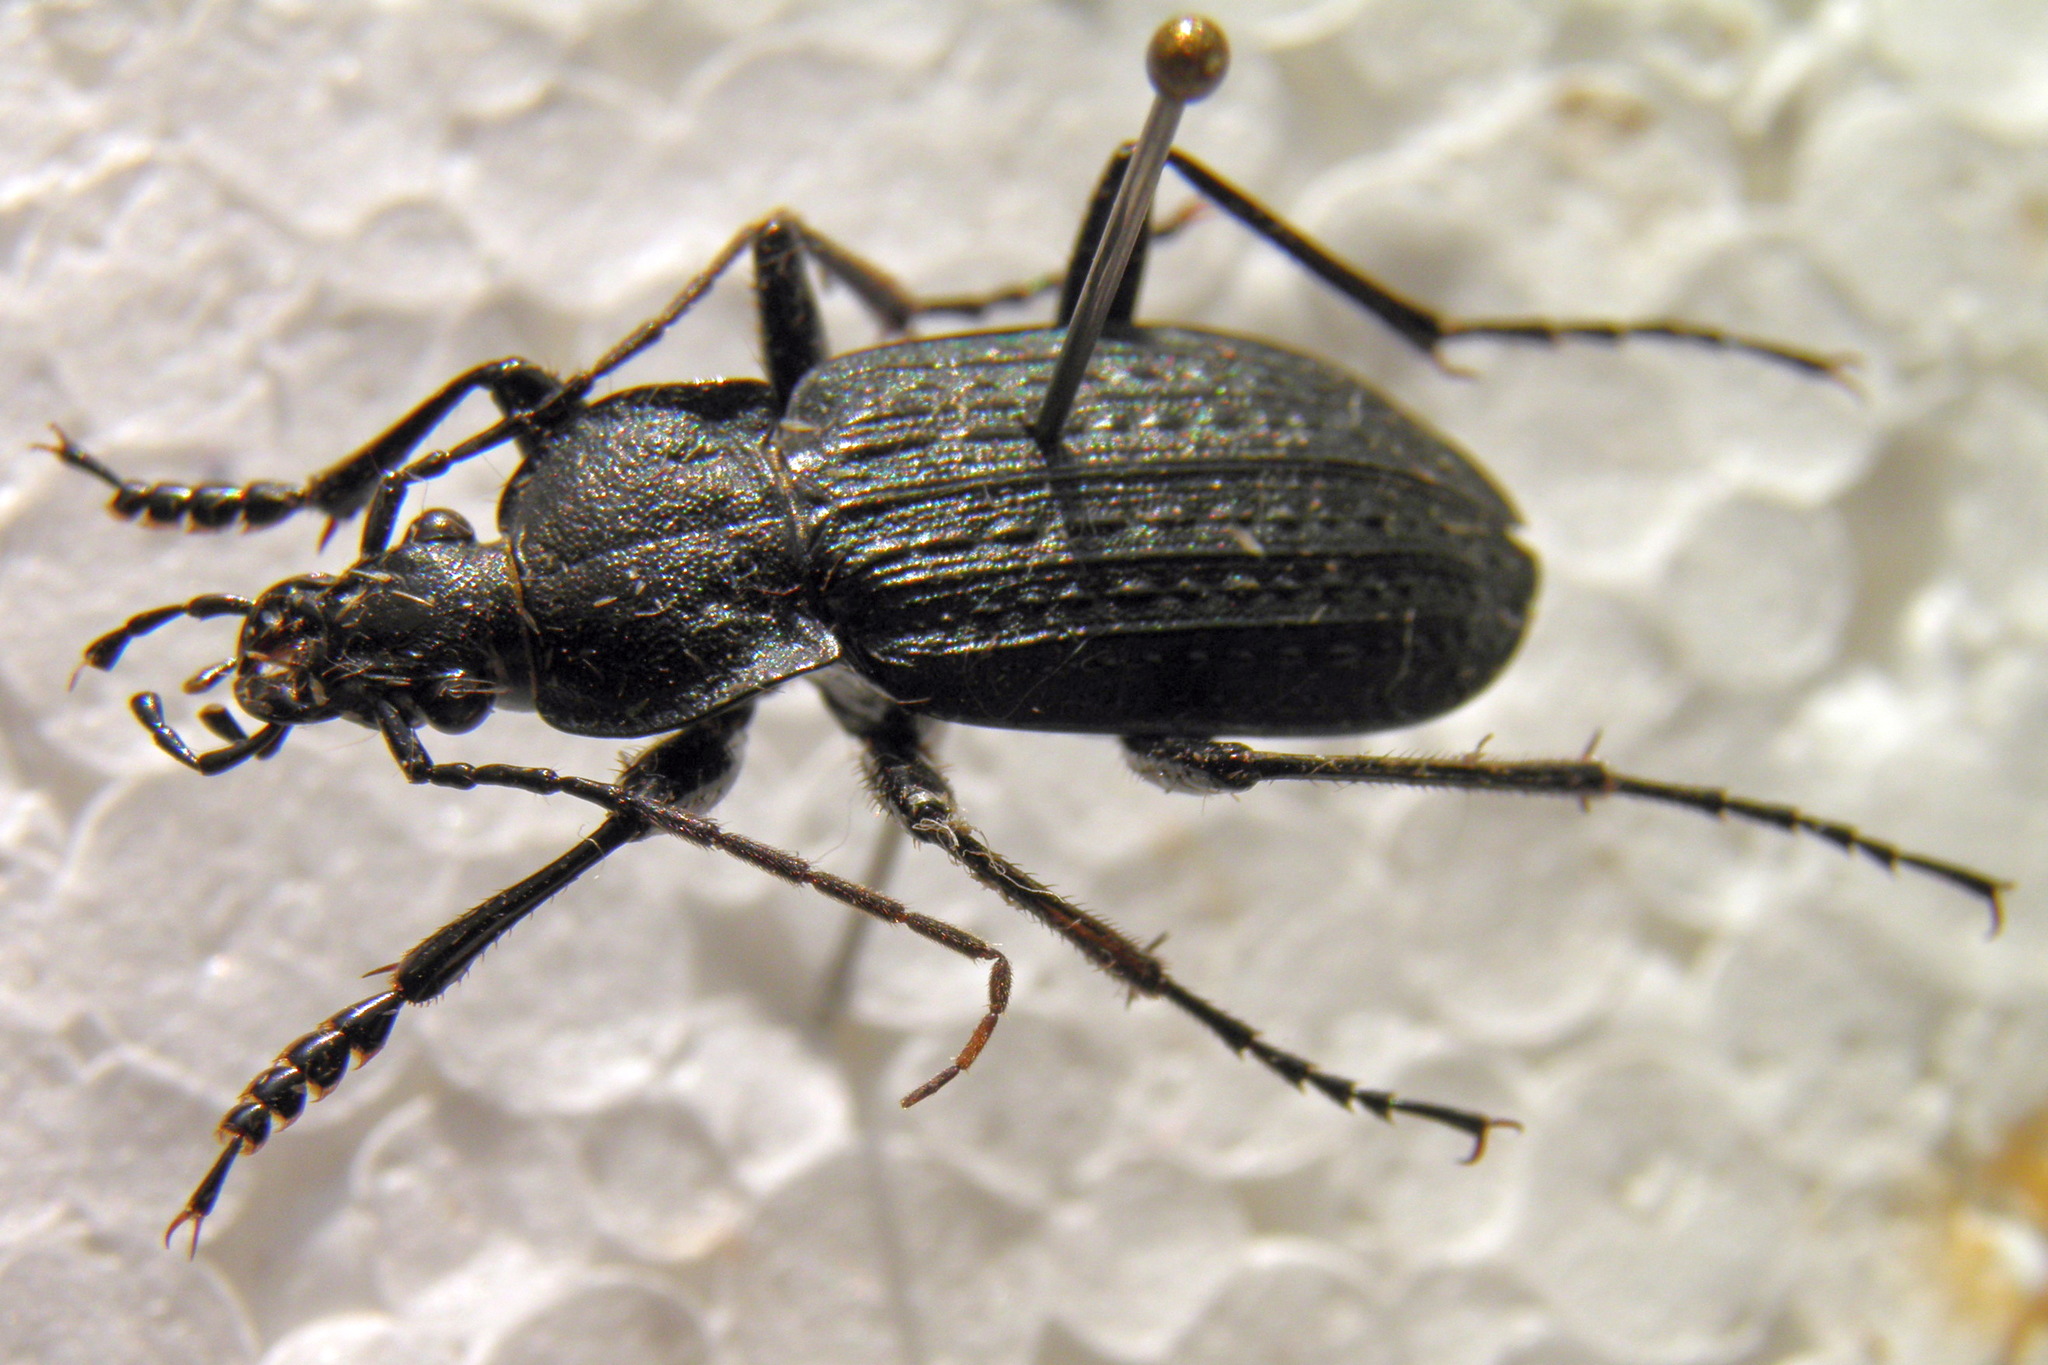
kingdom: Animalia
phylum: Arthropoda
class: Insecta
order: Coleoptera
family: Carabidae
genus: Carabus
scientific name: Carabus granulatus
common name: Granulate ground beetle
